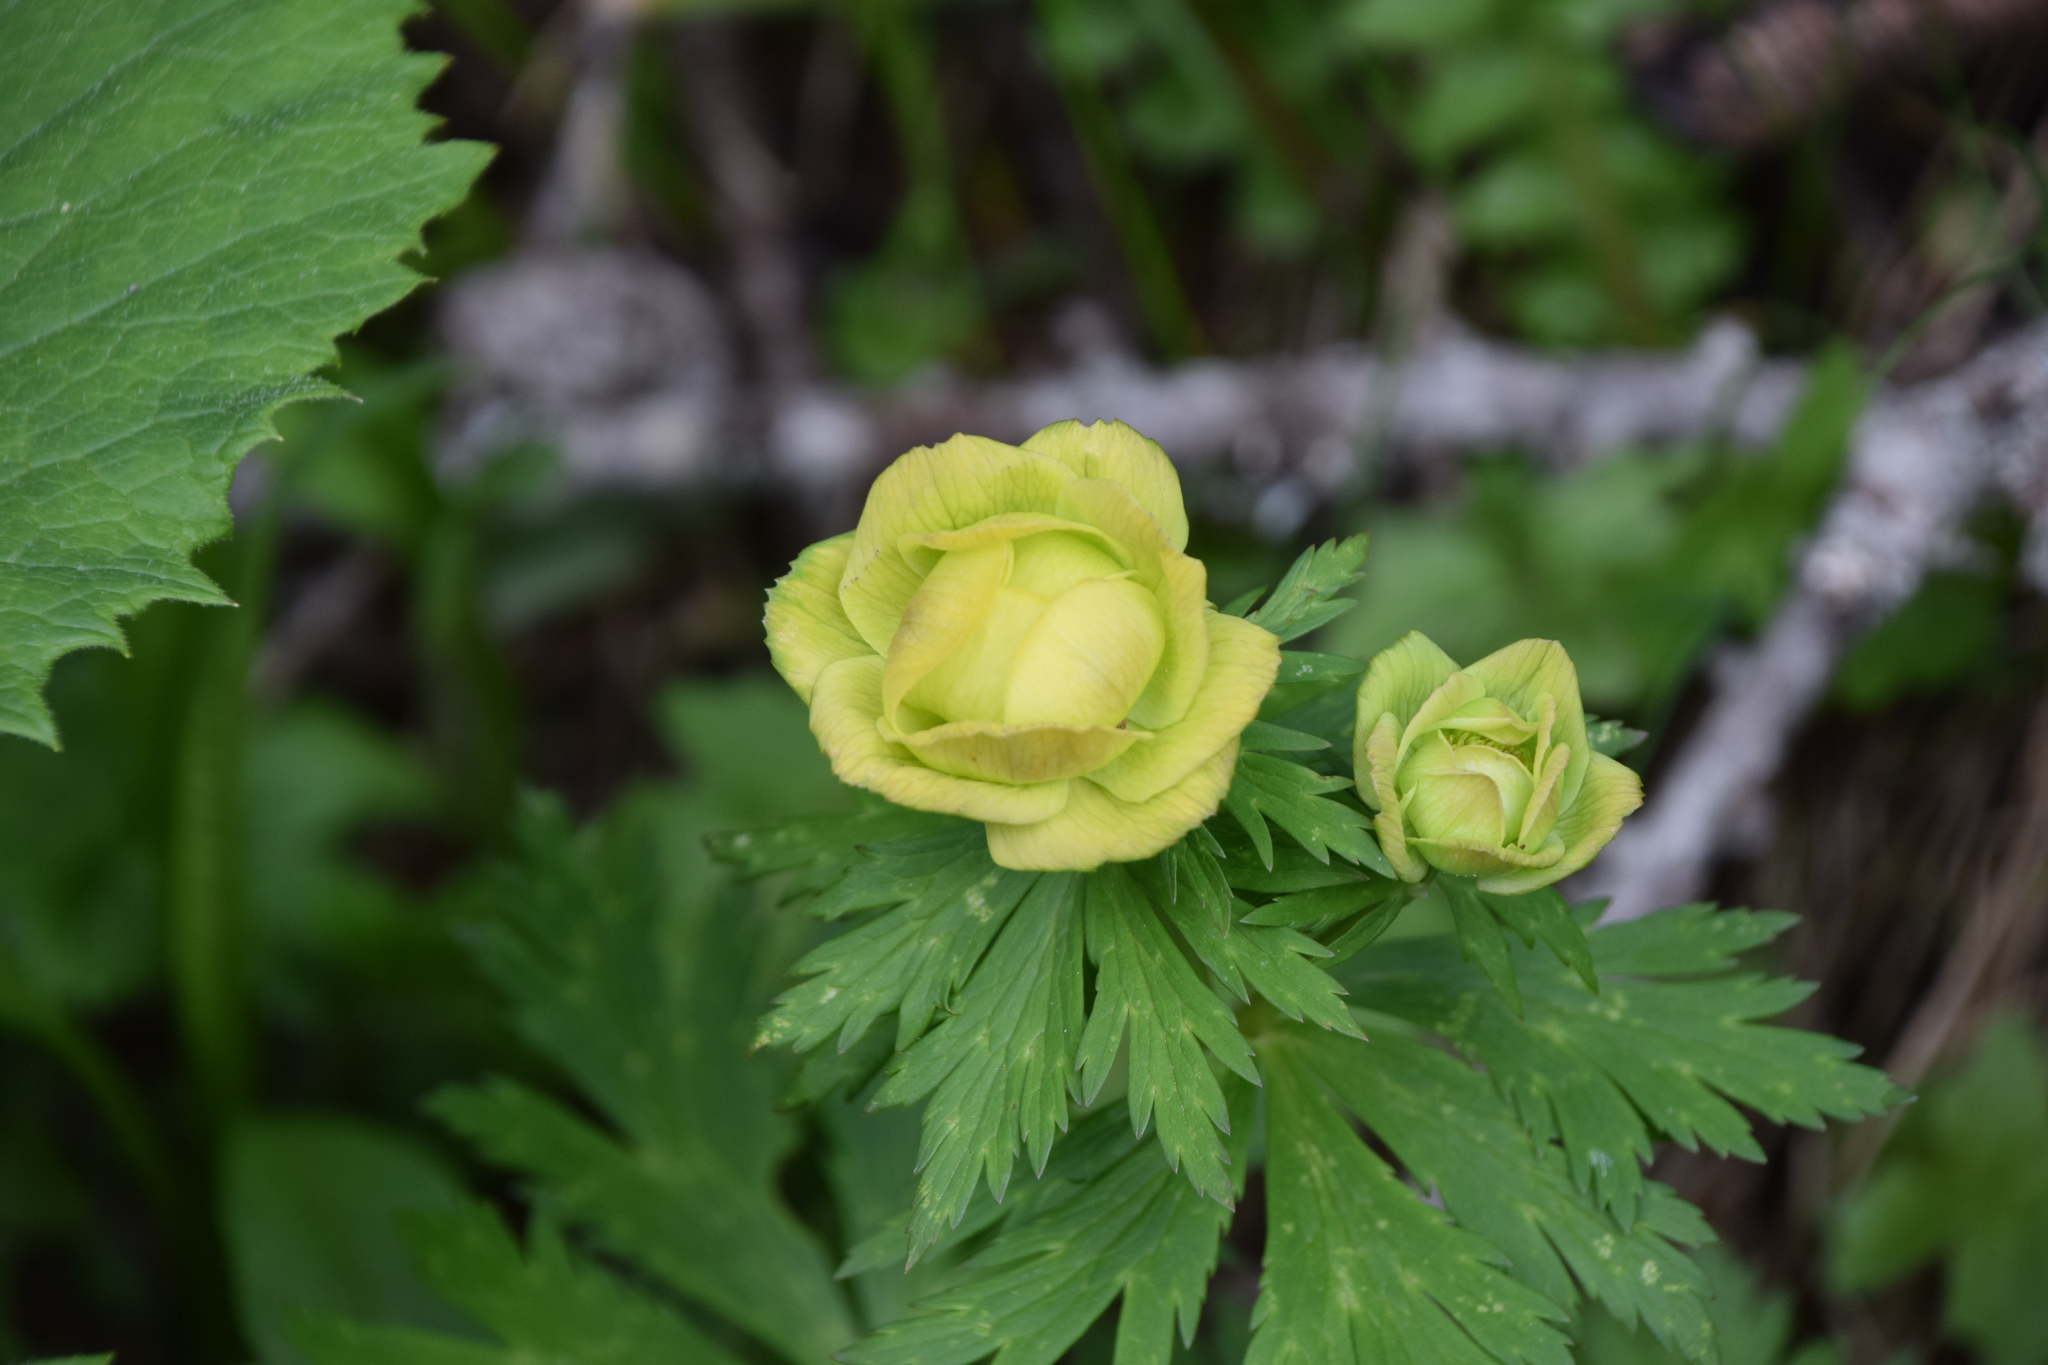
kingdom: Plantae
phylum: Tracheophyta
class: Magnoliopsida
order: Ranunculales
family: Ranunculaceae
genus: Trollius
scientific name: Trollius europaeus
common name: European globeflower
